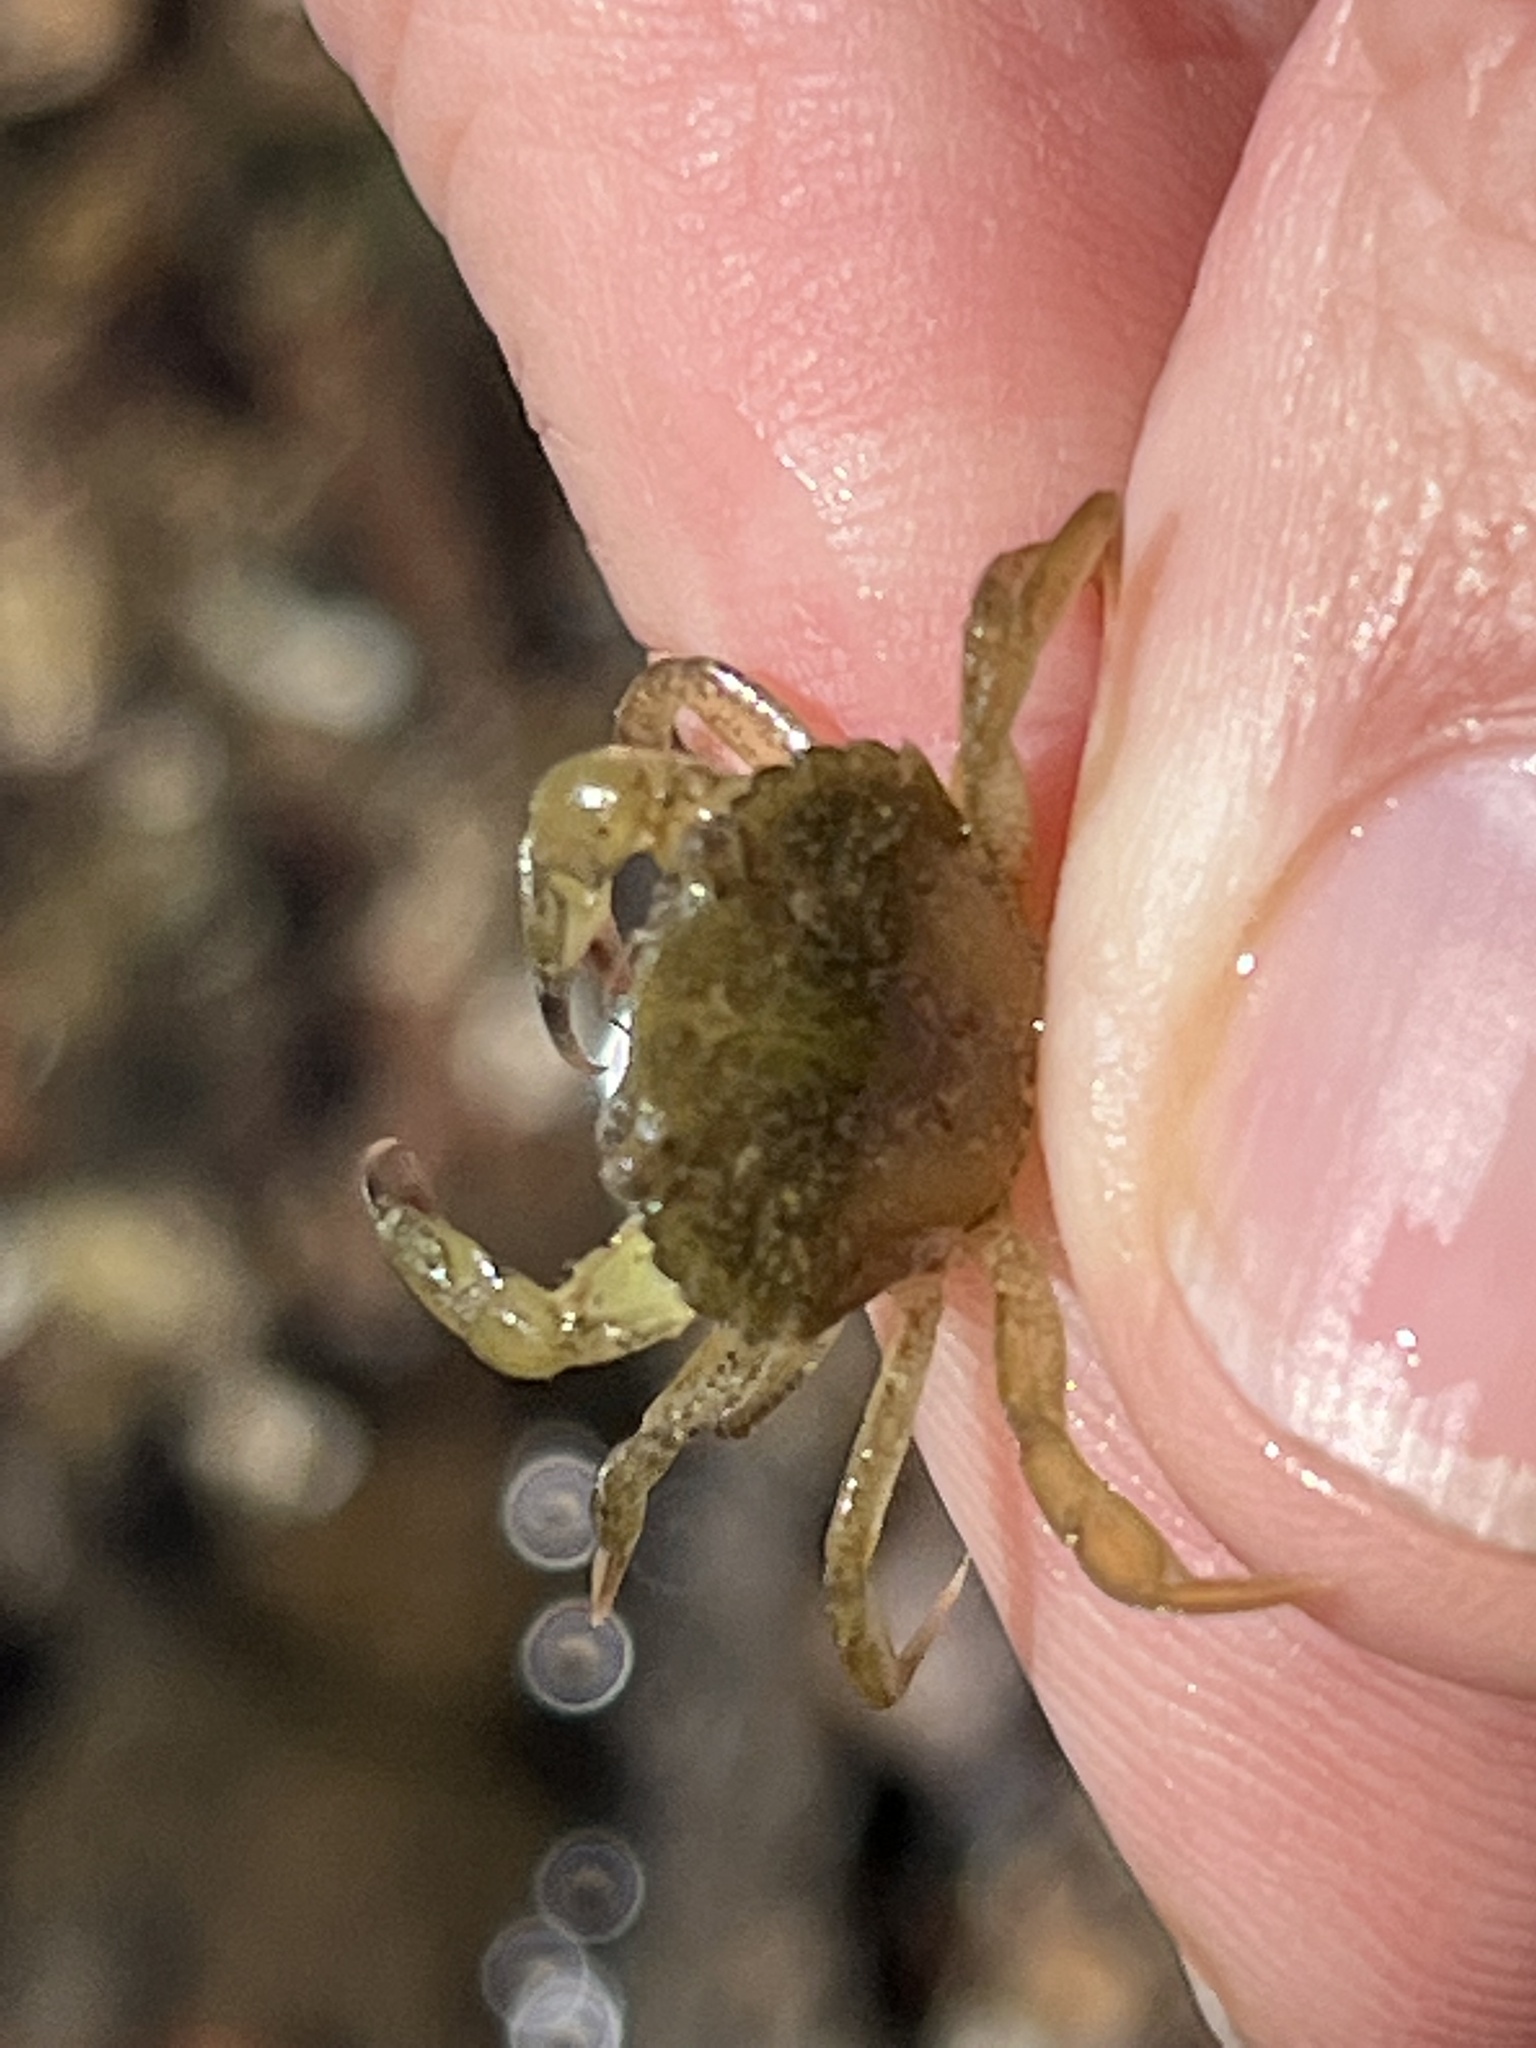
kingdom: Animalia
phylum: Arthropoda
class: Malacostraca
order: Decapoda
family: Carcinidae
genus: Carcinus
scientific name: Carcinus maenas
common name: European green crab
